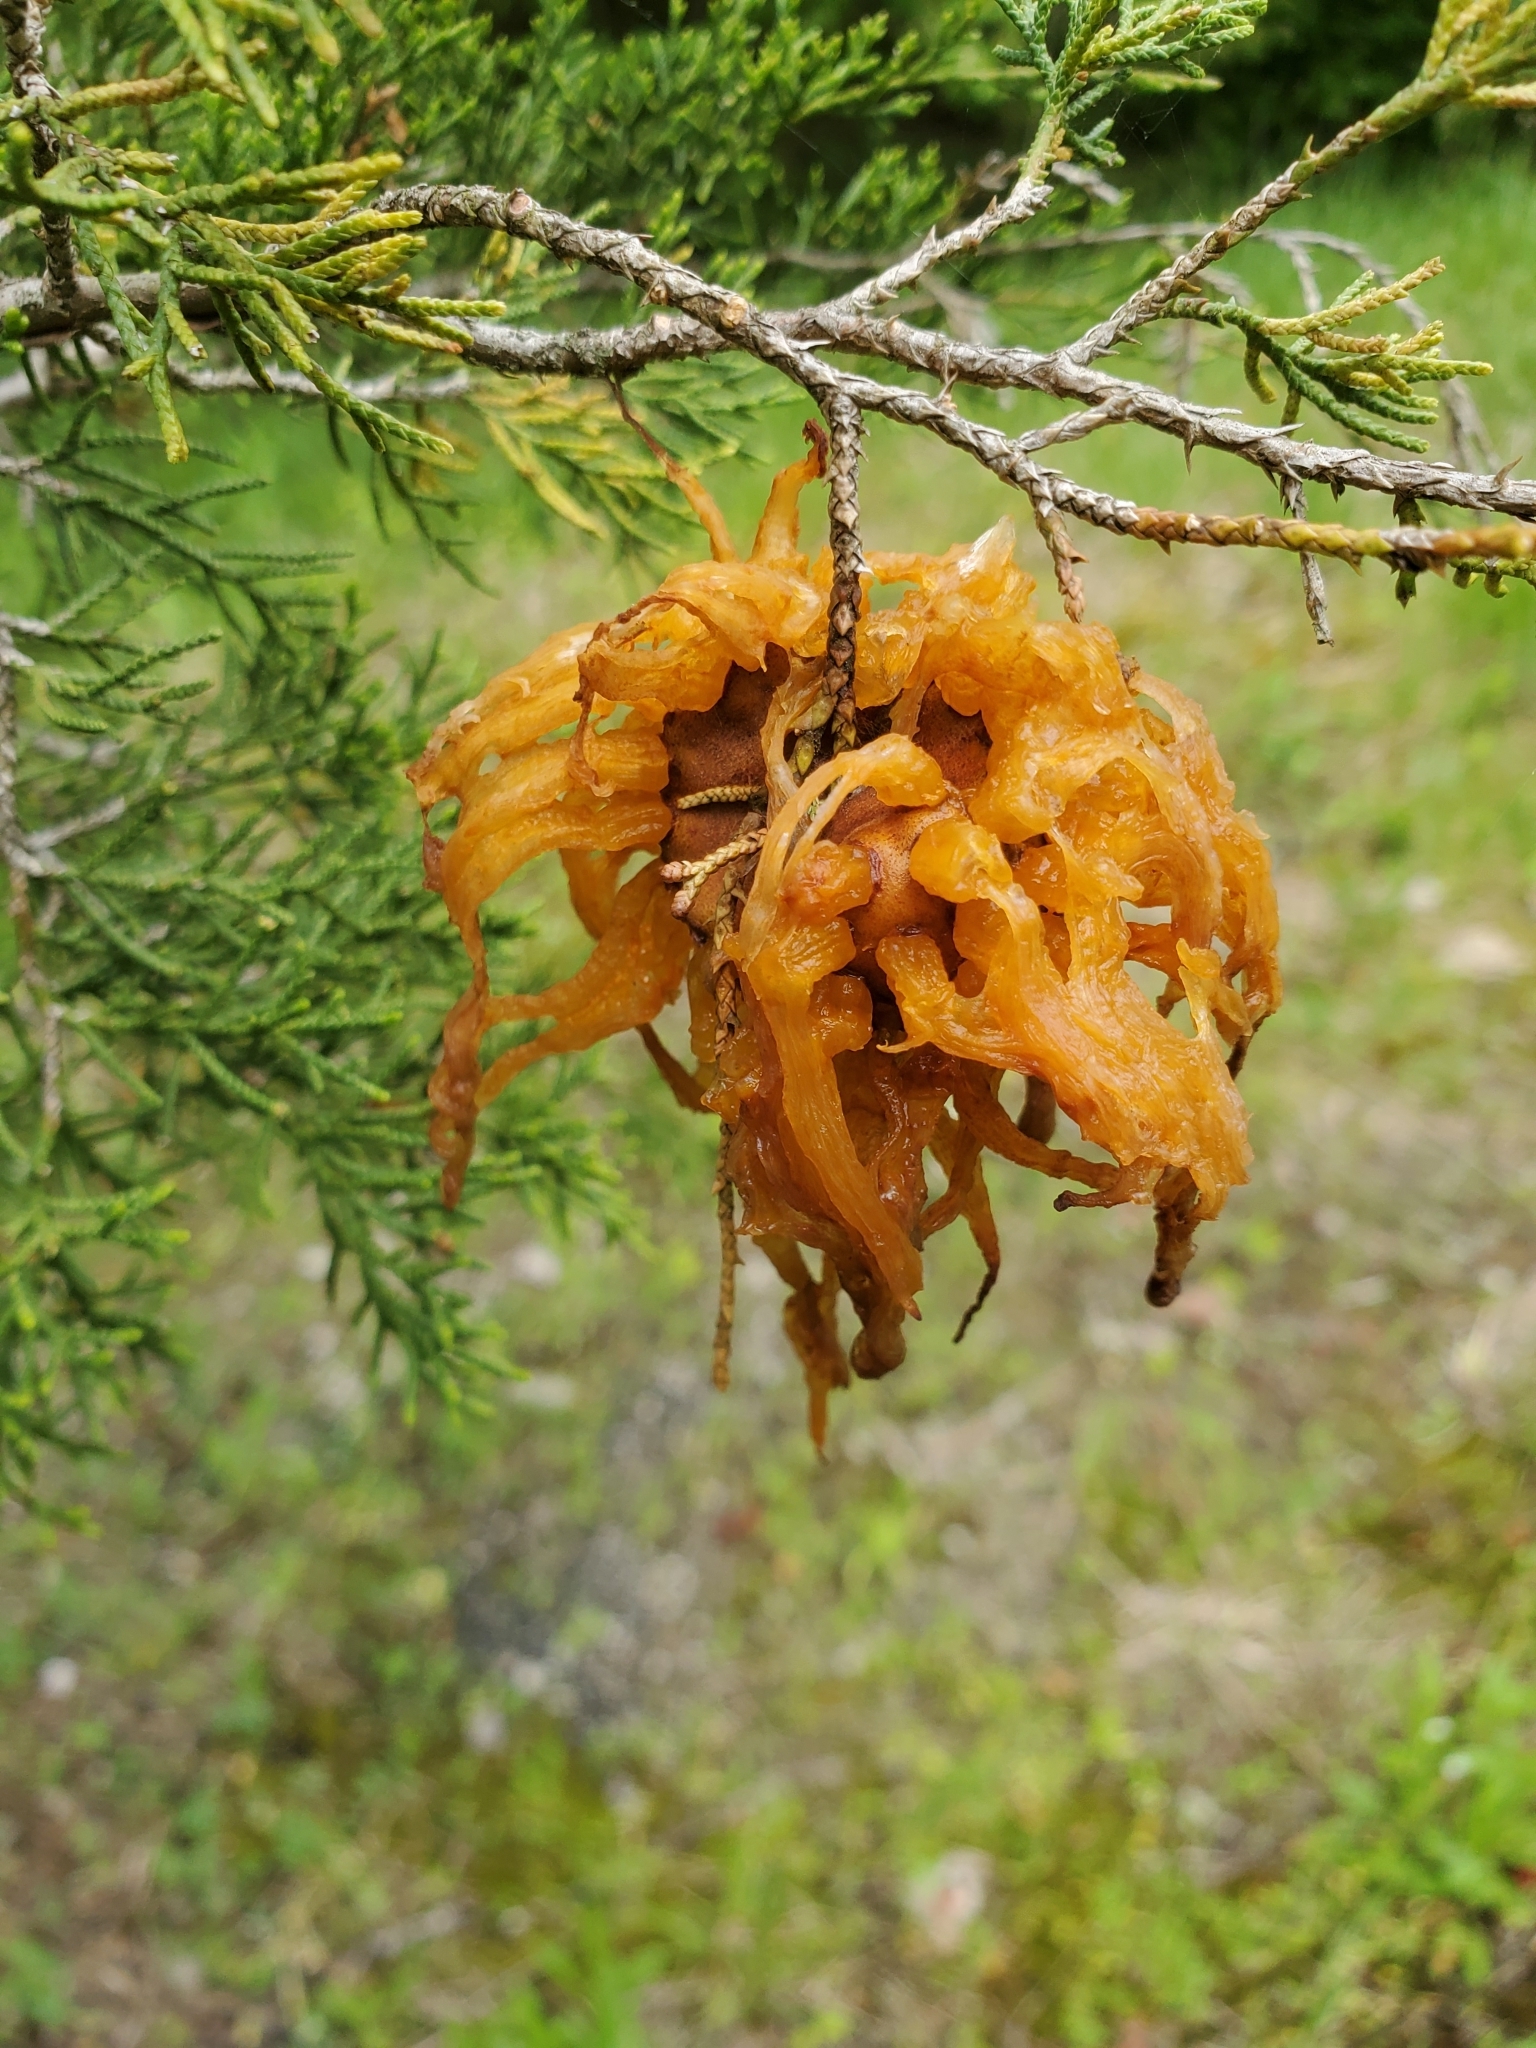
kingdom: Fungi
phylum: Basidiomycota
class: Pucciniomycetes
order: Pucciniales
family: Gymnosporangiaceae
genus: Gymnosporangium
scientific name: Gymnosporangium juniperi-virginianae
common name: Juniper-apple rust
